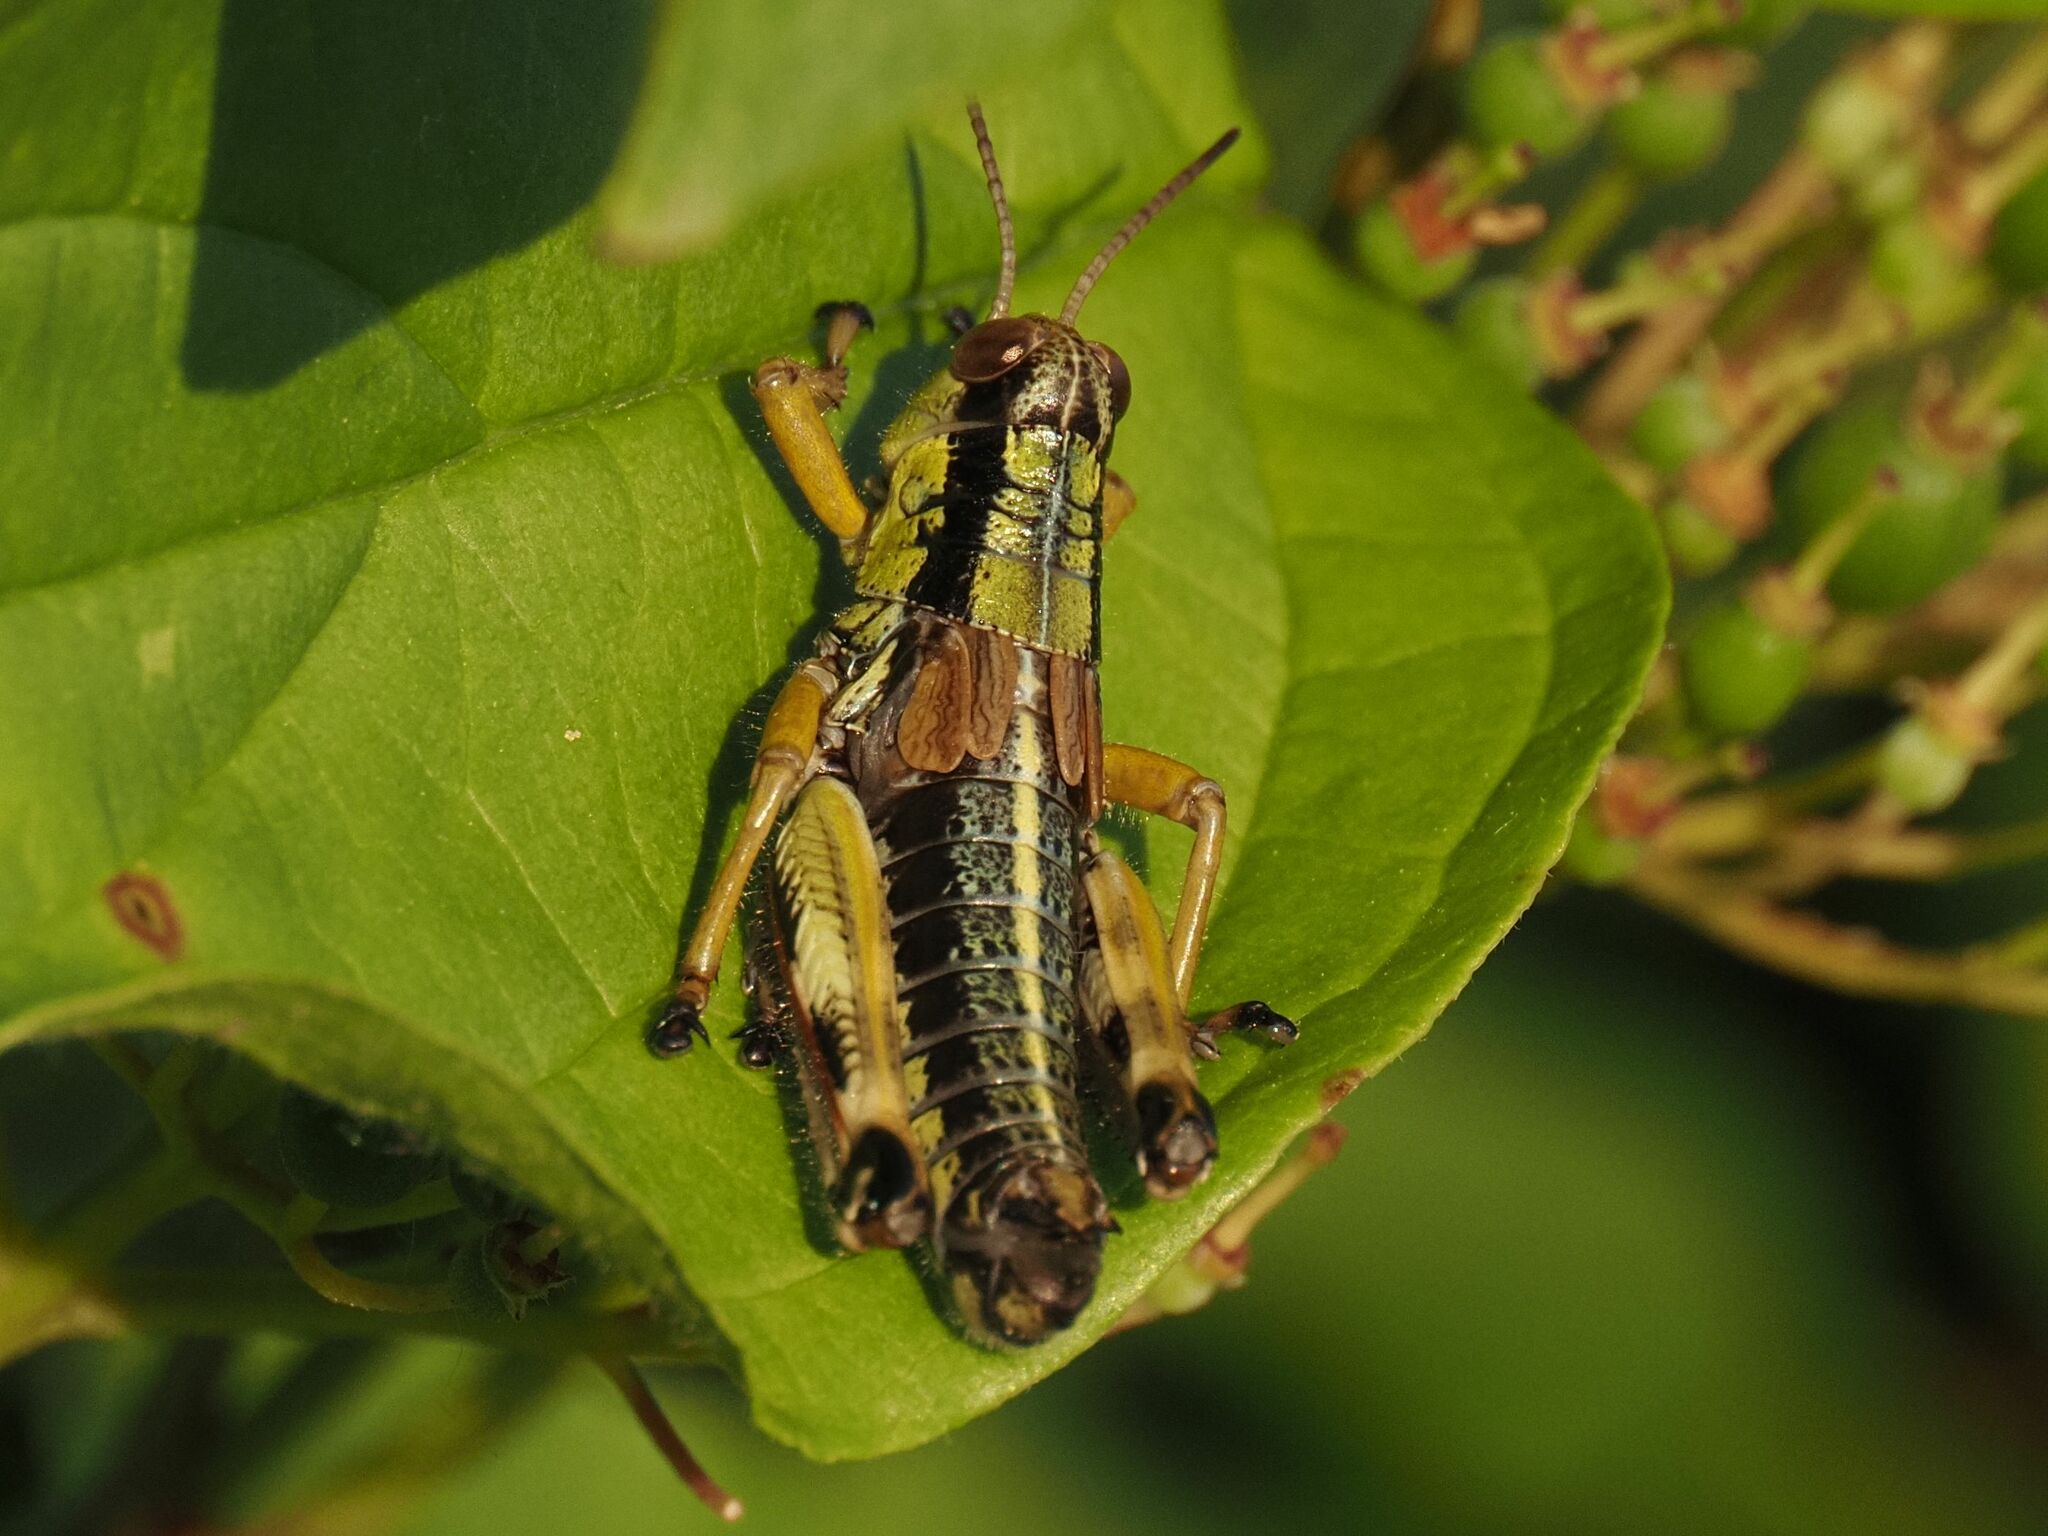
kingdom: Animalia
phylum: Arthropoda
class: Insecta
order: Orthoptera
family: Acrididae
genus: Miramella
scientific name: Miramella alpina
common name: Green mountain grasshopper
